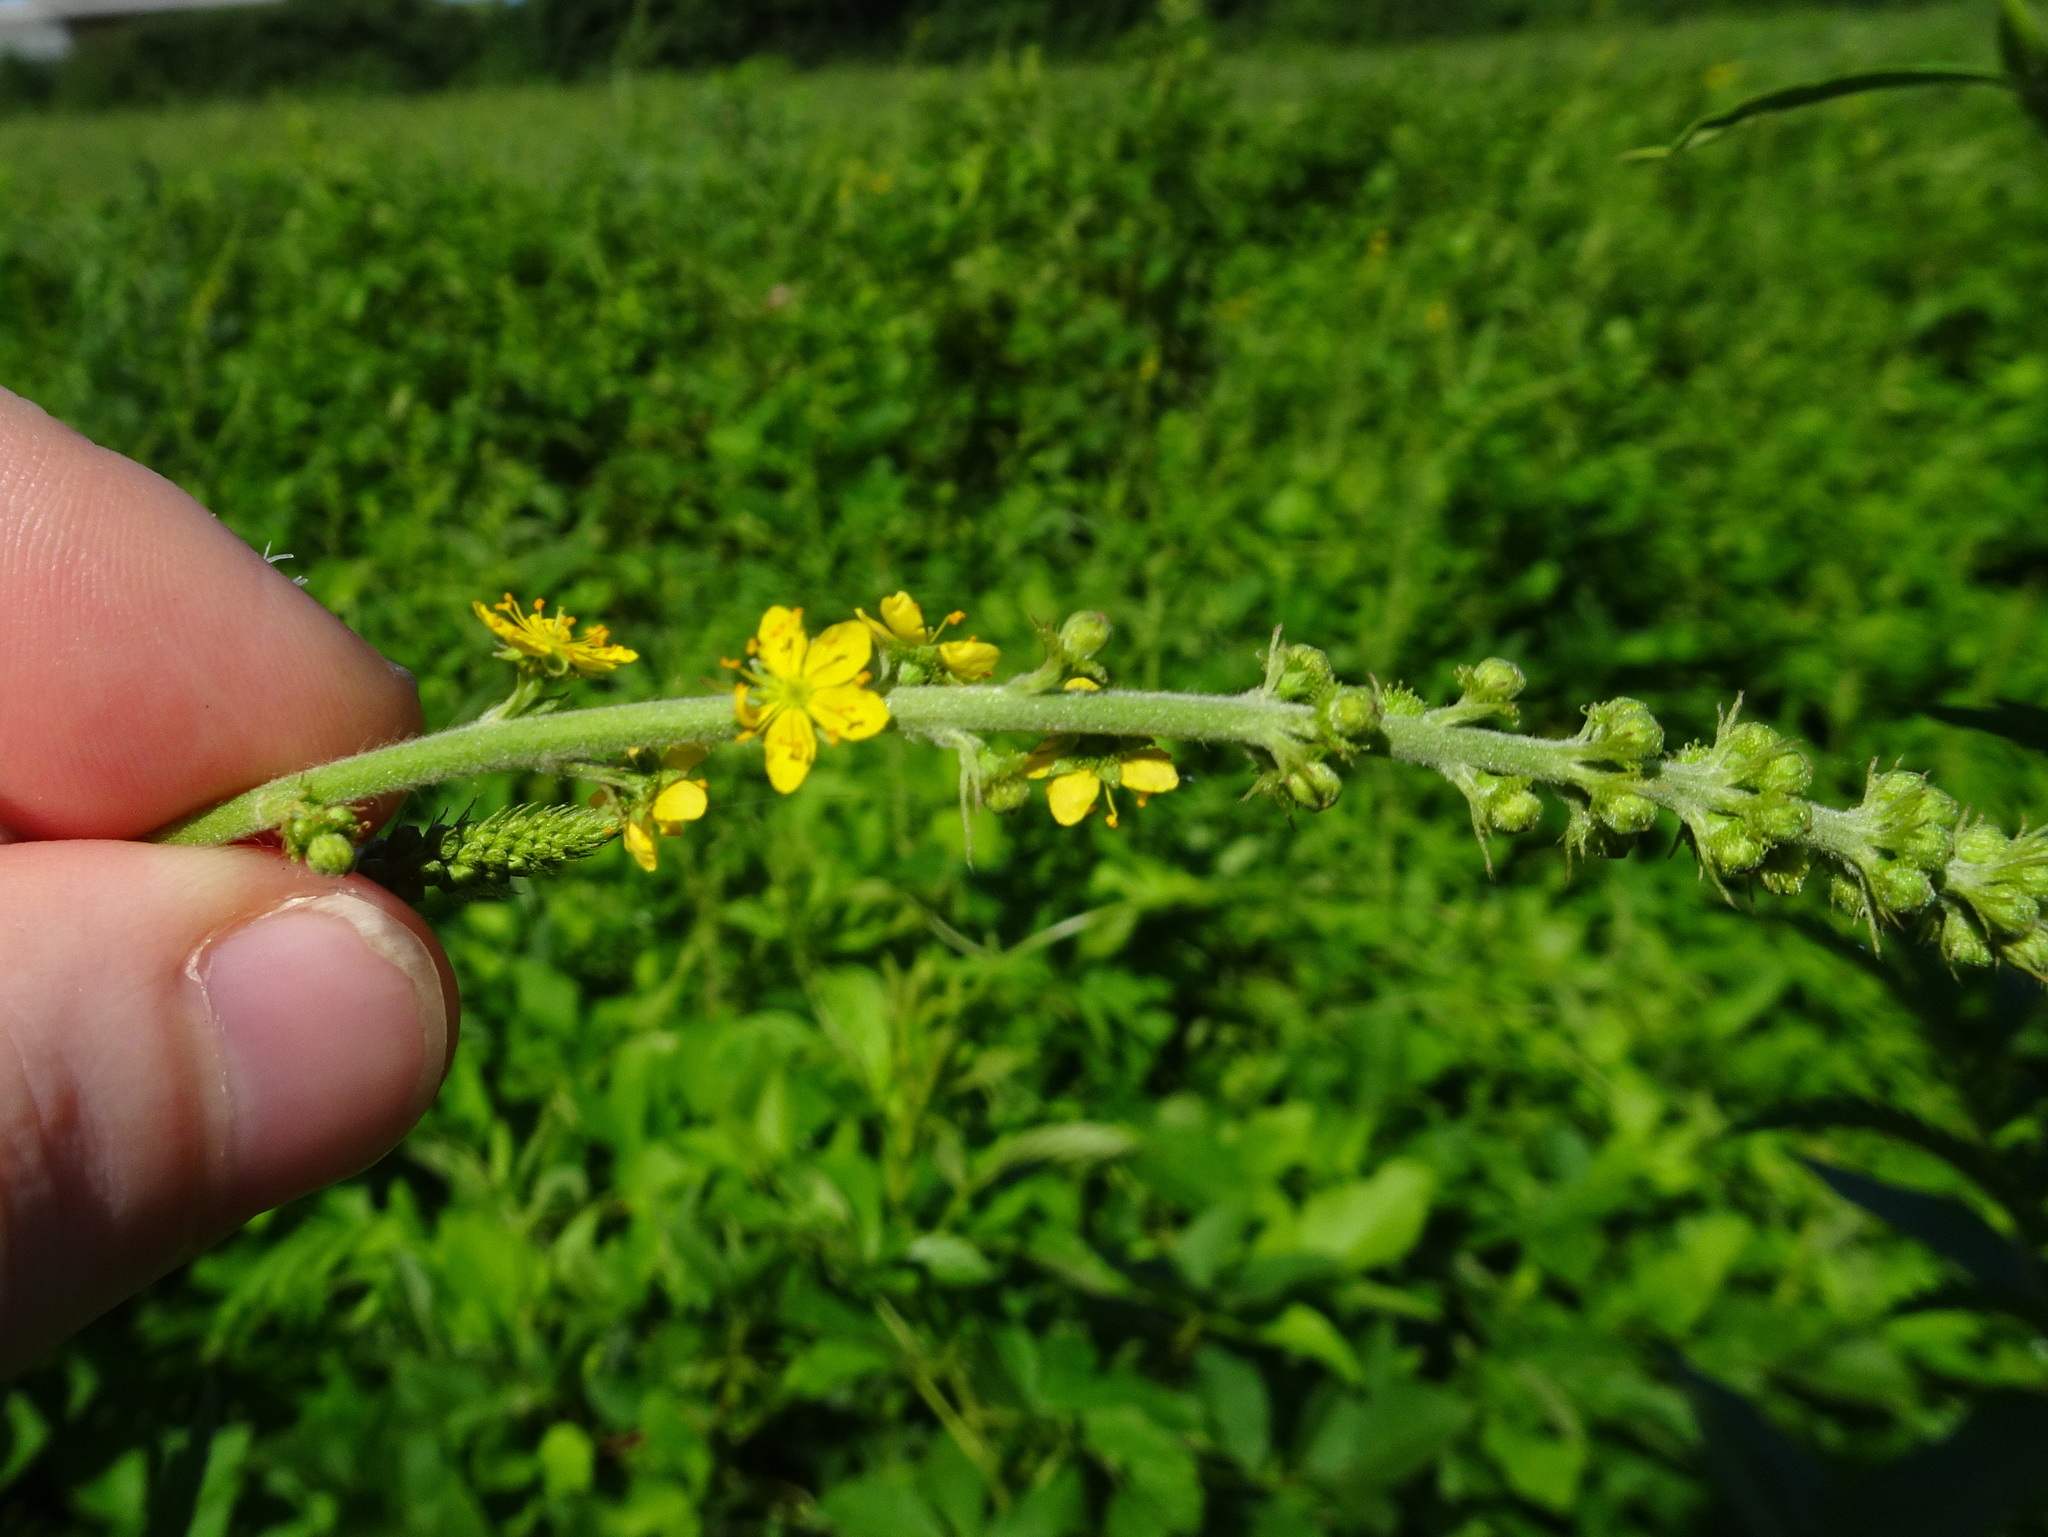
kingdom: Plantae
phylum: Tracheophyta
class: Magnoliopsida
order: Rosales
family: Rosaceae
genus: Agrimonia
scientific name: Agrimonia parviflora
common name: Harvest-lice
